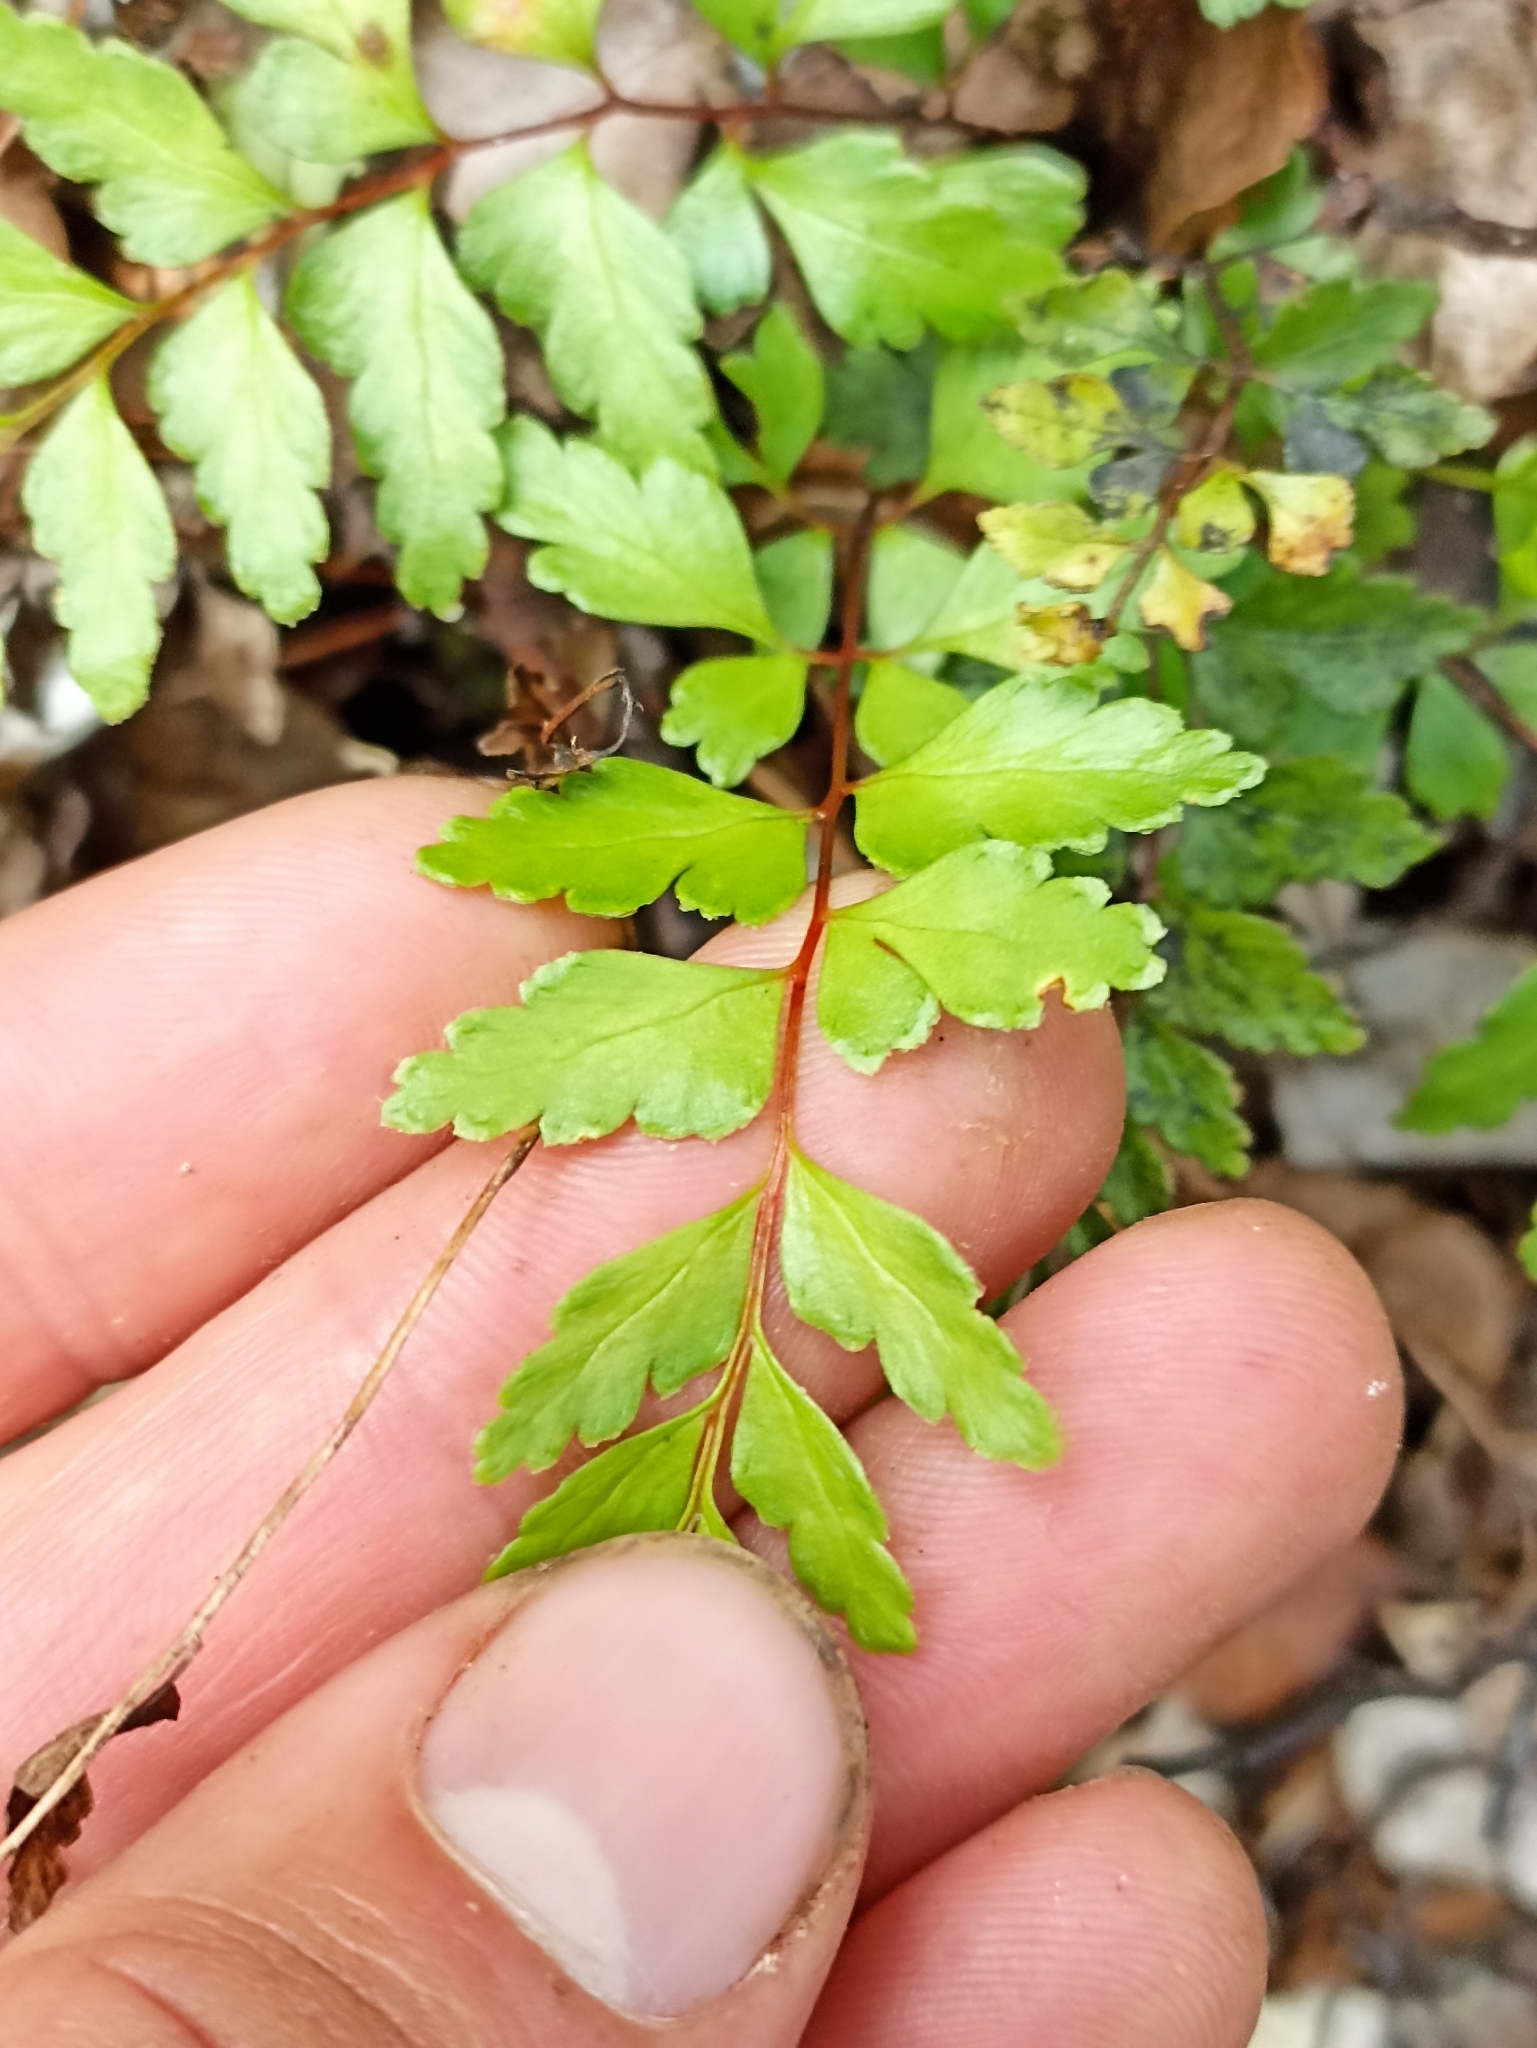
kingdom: Plantae
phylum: Tracheophyta
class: Polypodiopsida
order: Polypodiales
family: Lindsaeaceae
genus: Lindsaea
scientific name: Lindsaea trichomanoides
